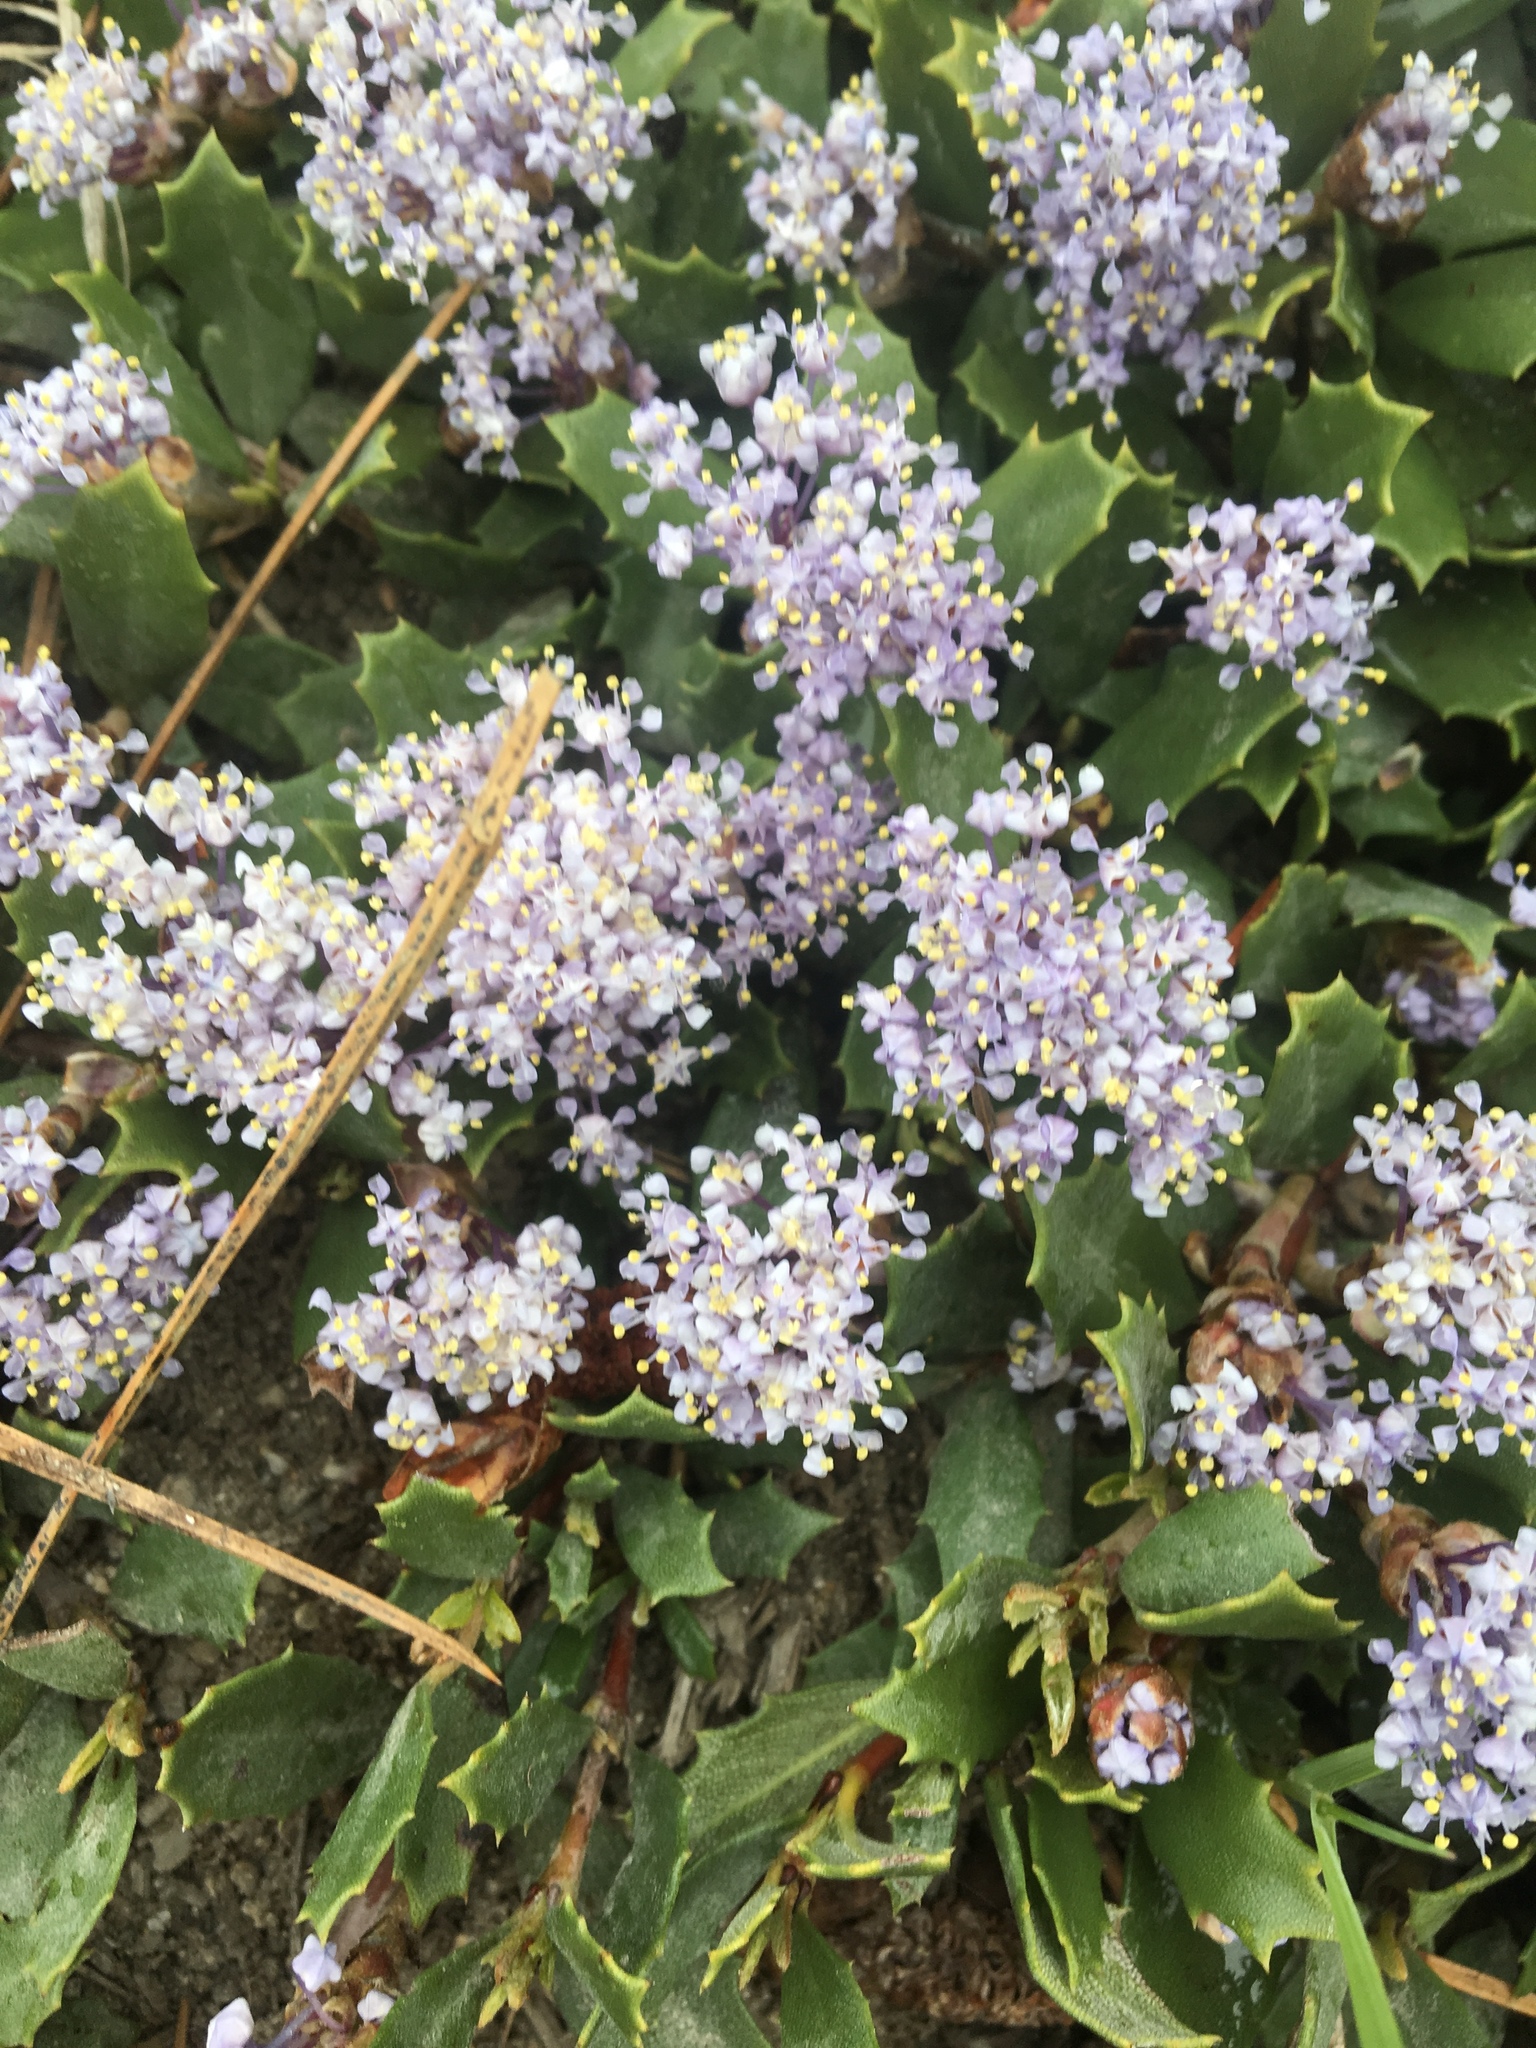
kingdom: Plantae
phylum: Tracheophyta
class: Magnoliopsida
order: Rosales
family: Rhamnaceae
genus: Ceanothus
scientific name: Ceanothus prostratus
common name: Mahala-mat
